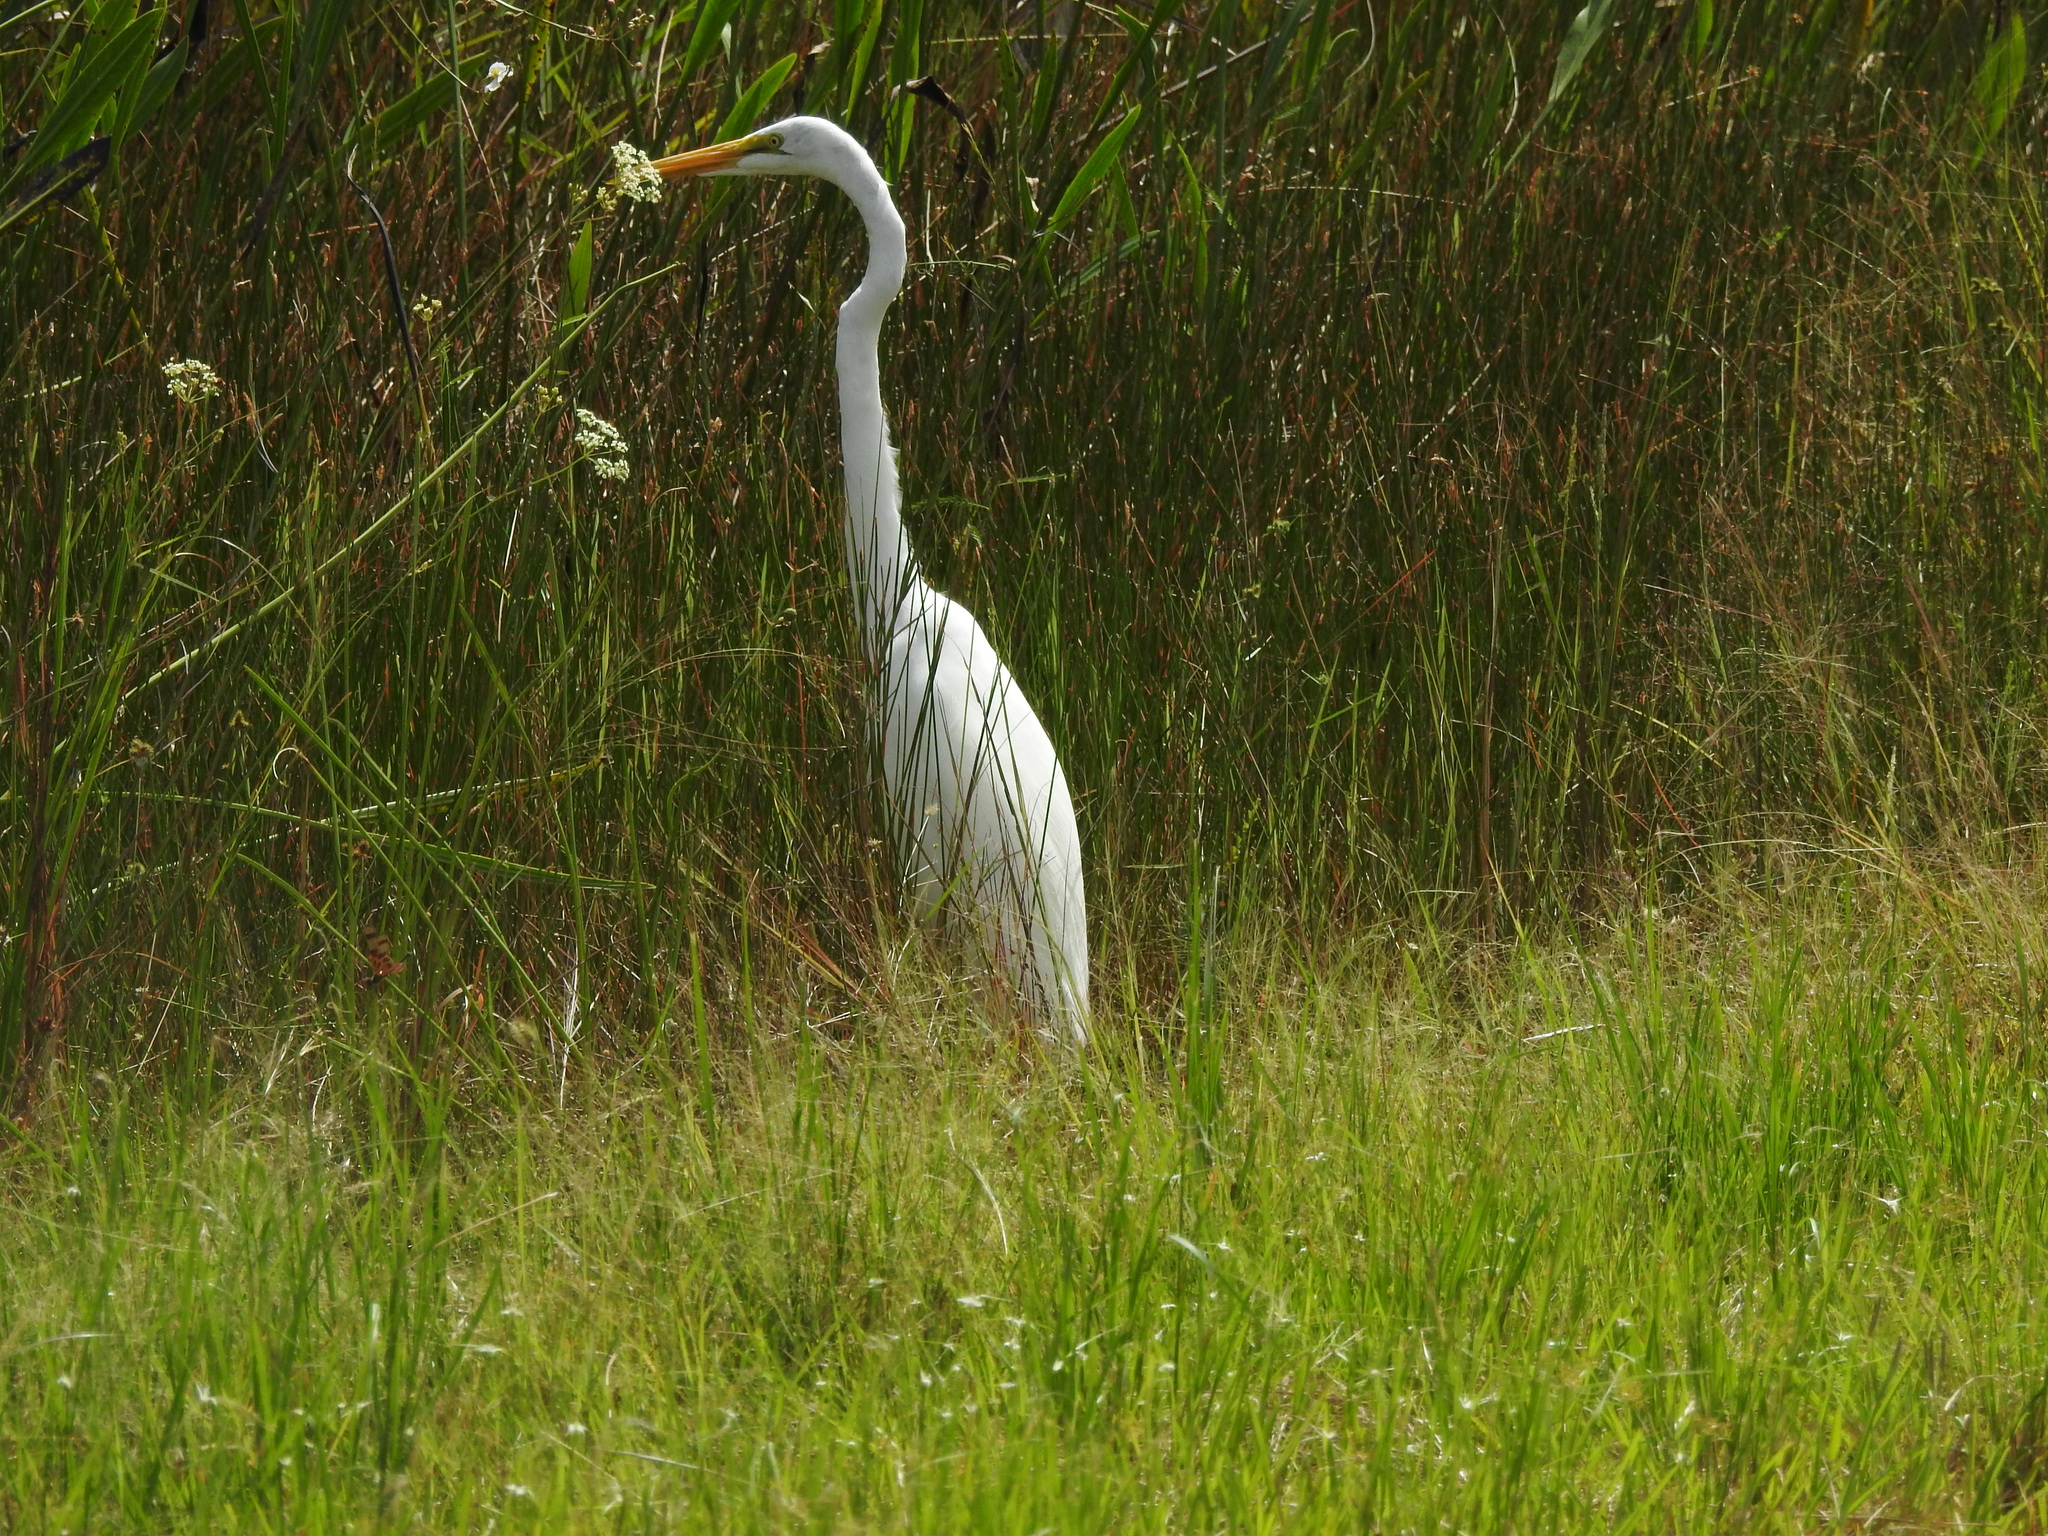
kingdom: Animalia
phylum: Chordata
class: Aves
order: Pelecaniformes
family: Ardeidae
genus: Ardea
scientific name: Ardea alba
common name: Great egret
